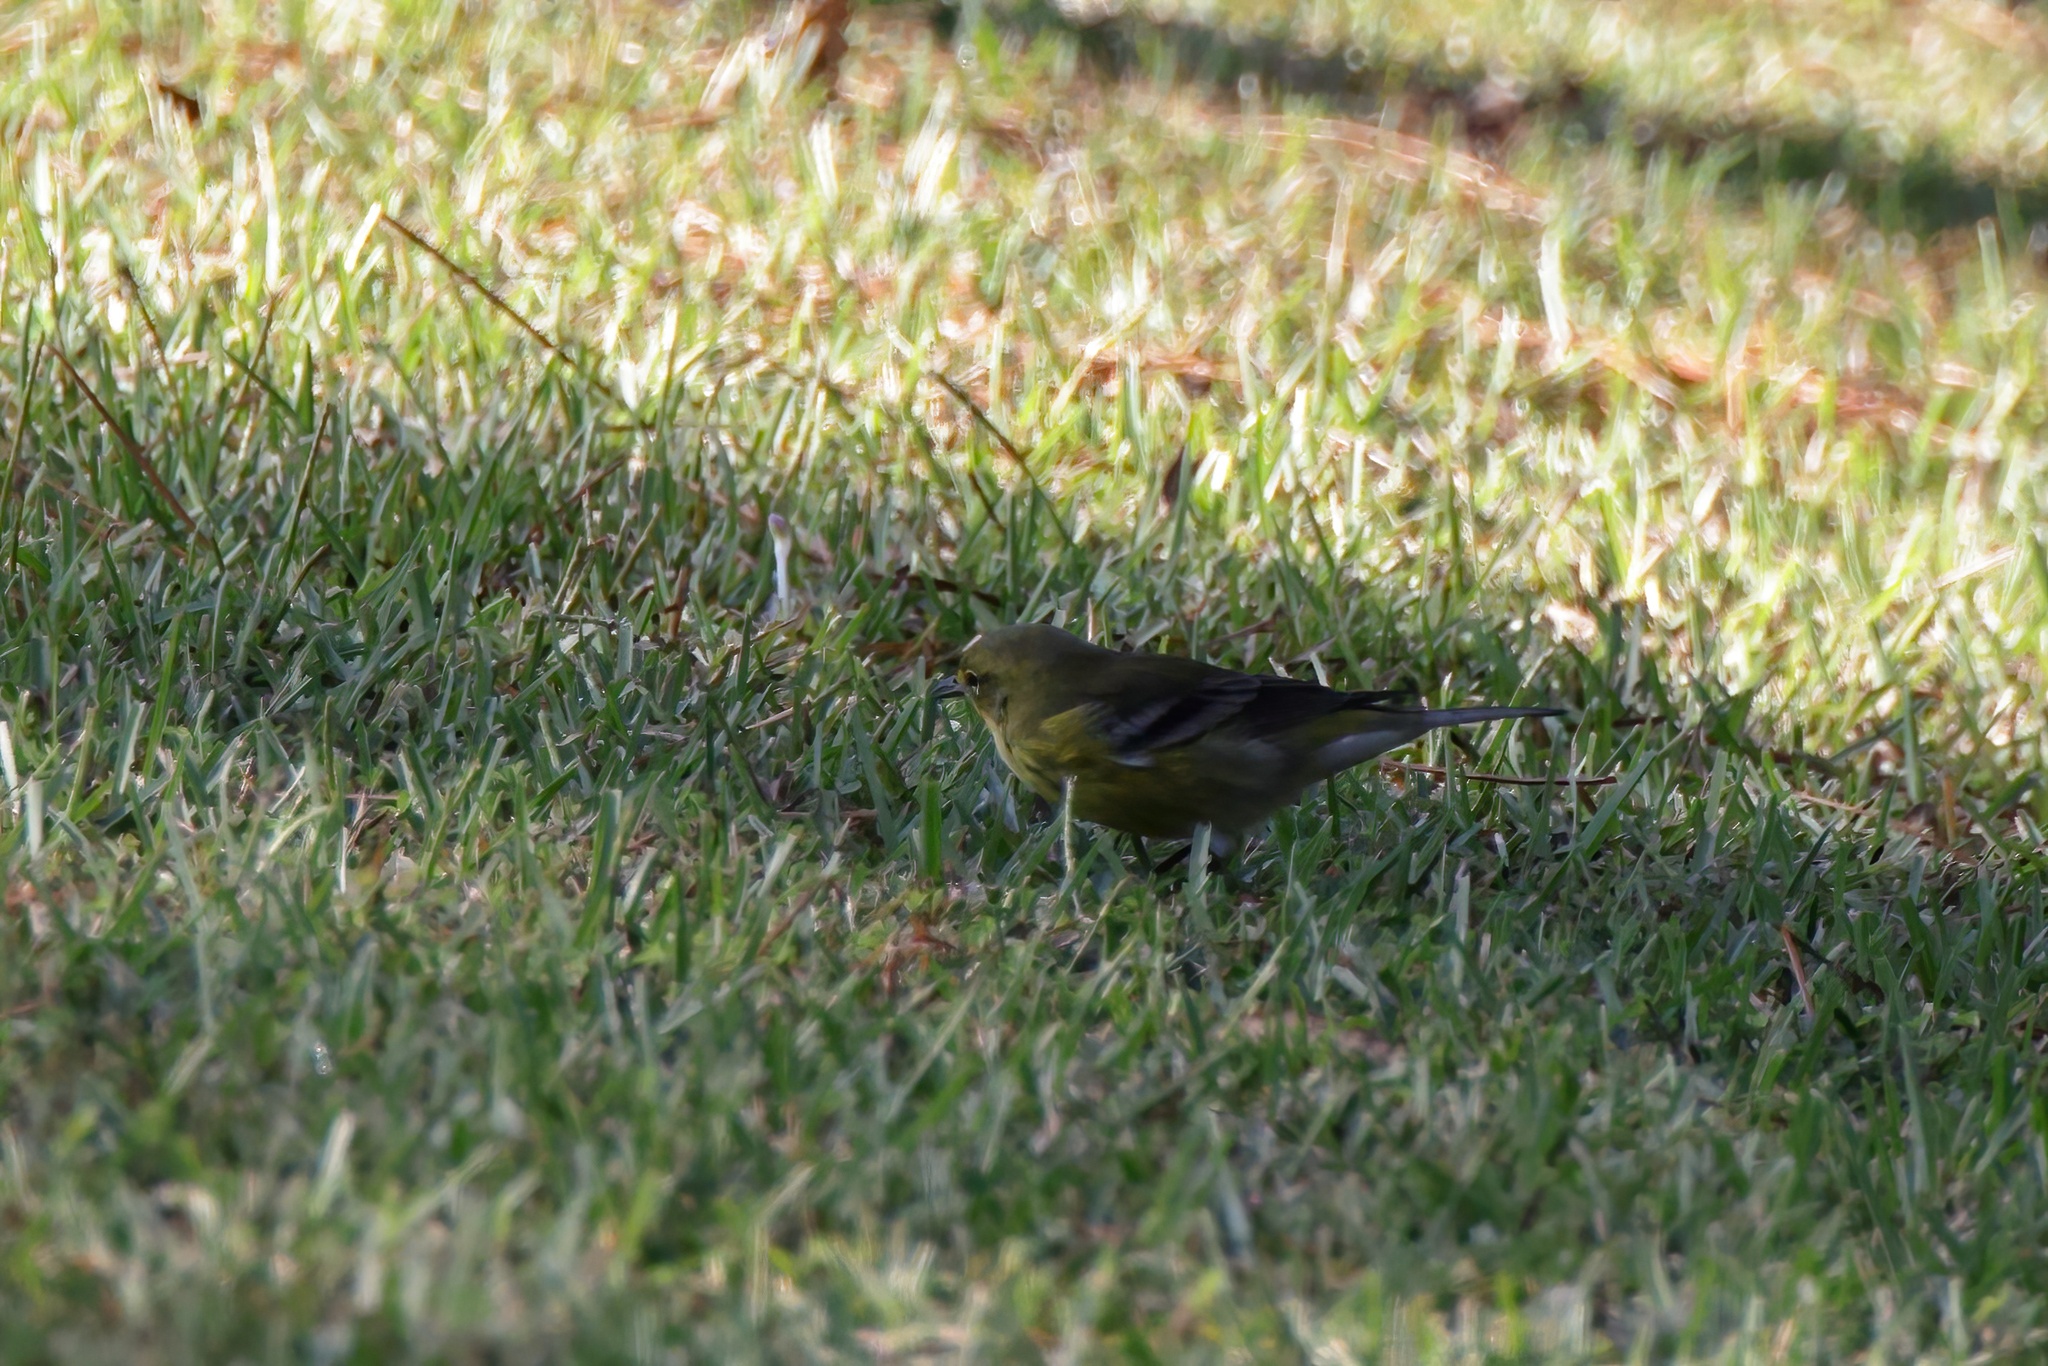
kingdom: Animalia
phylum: Chordata
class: Aves
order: Passeriformes
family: Parulidae
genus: Setophaga
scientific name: Setophaga pinus
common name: Pine warbler
